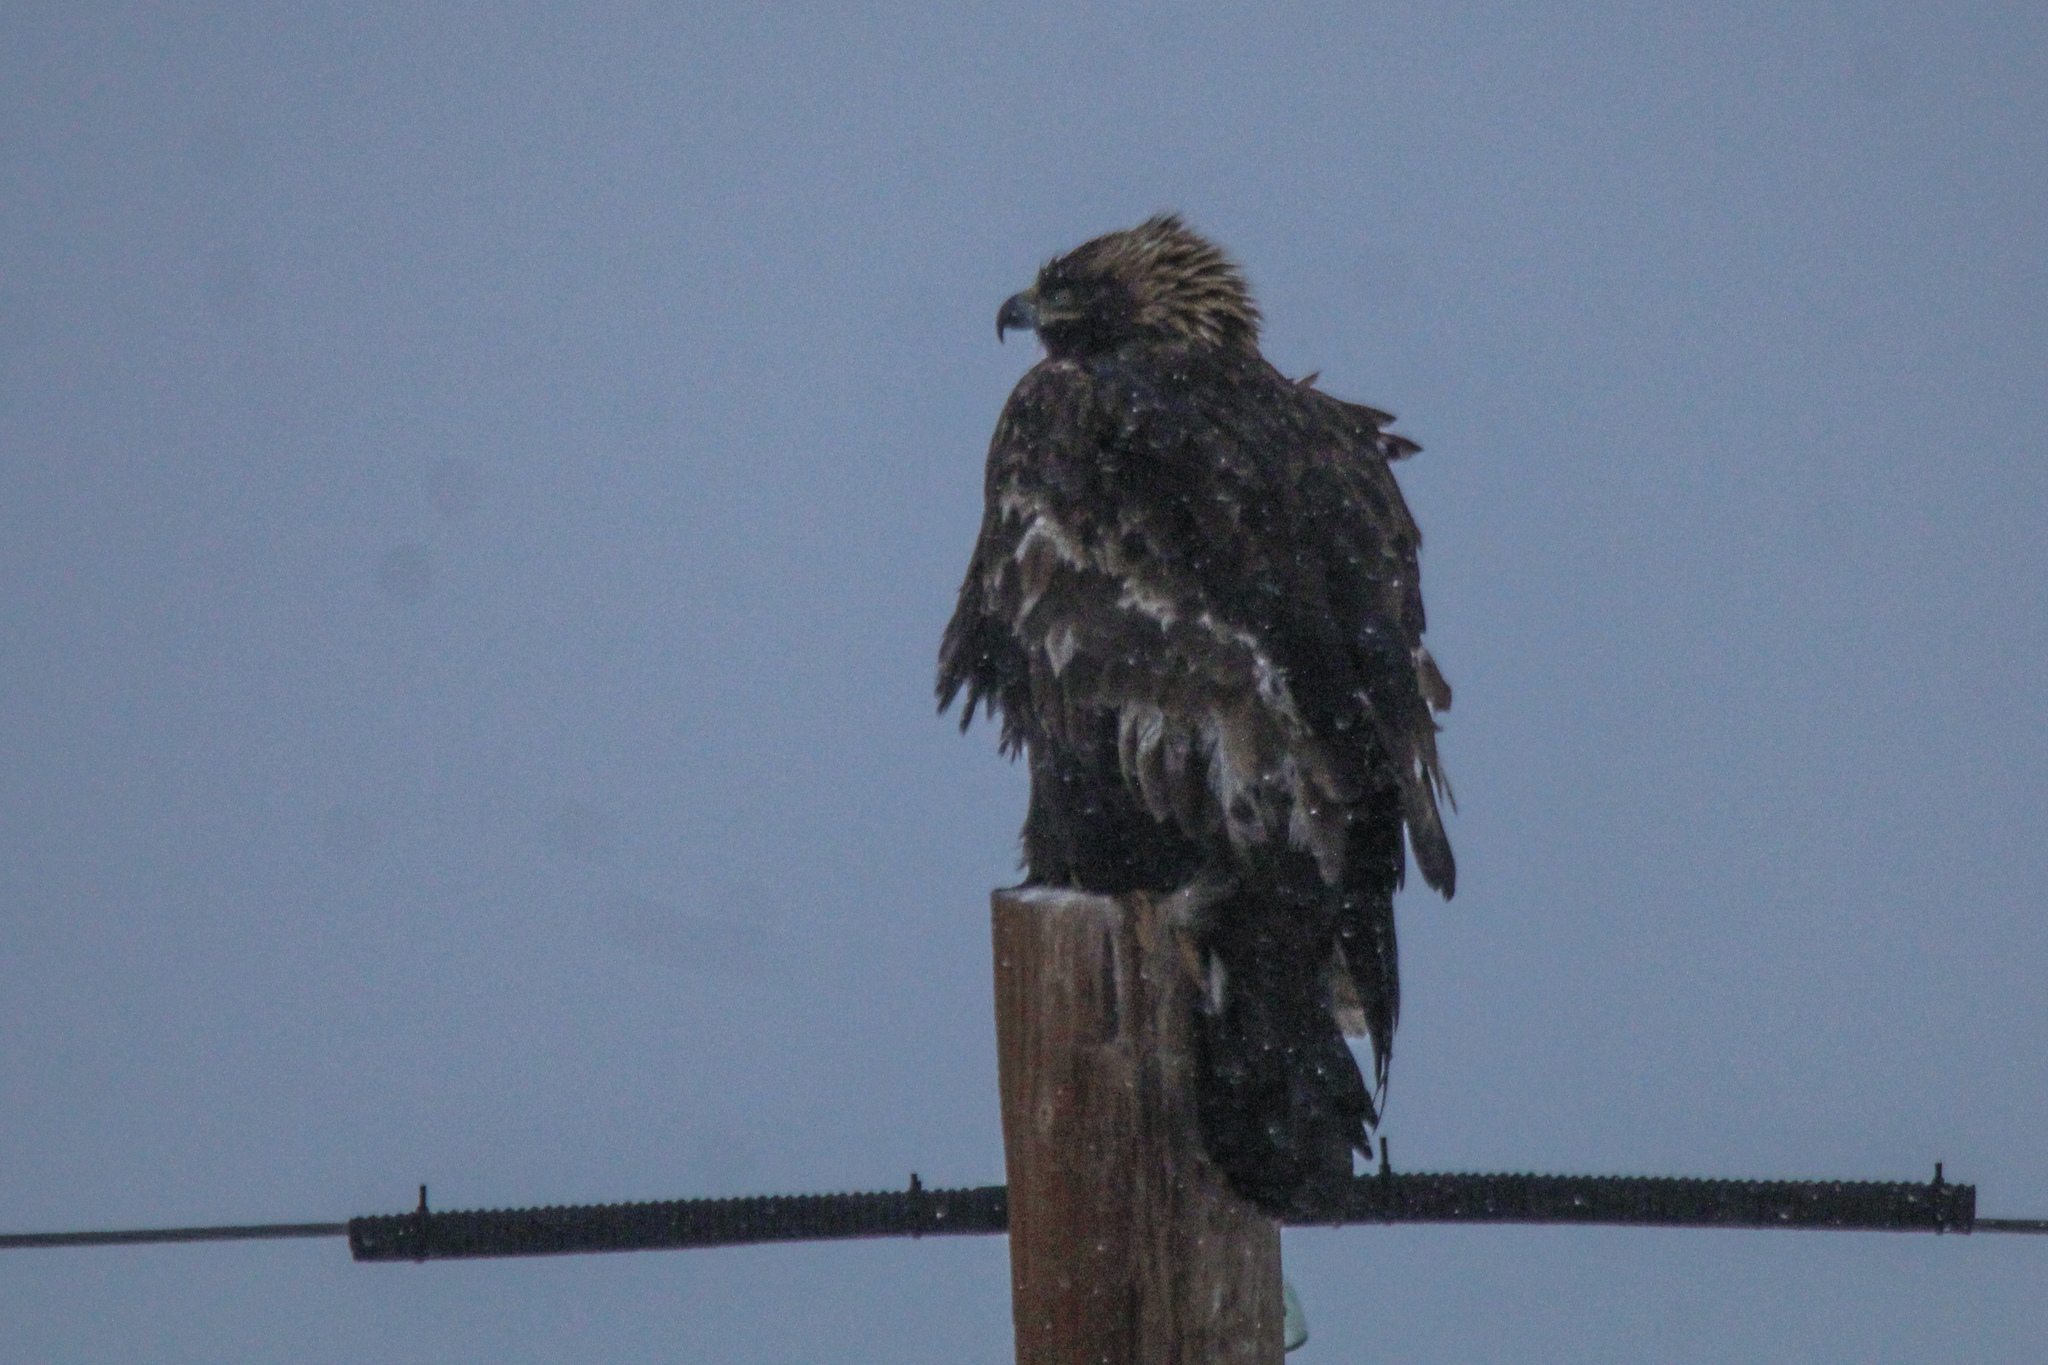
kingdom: Animalia
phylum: Chordata
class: Aves
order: Accipitriformes
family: Accipitridae
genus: Aquila
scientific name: Aquila chrysaetos
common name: Golden eagle
